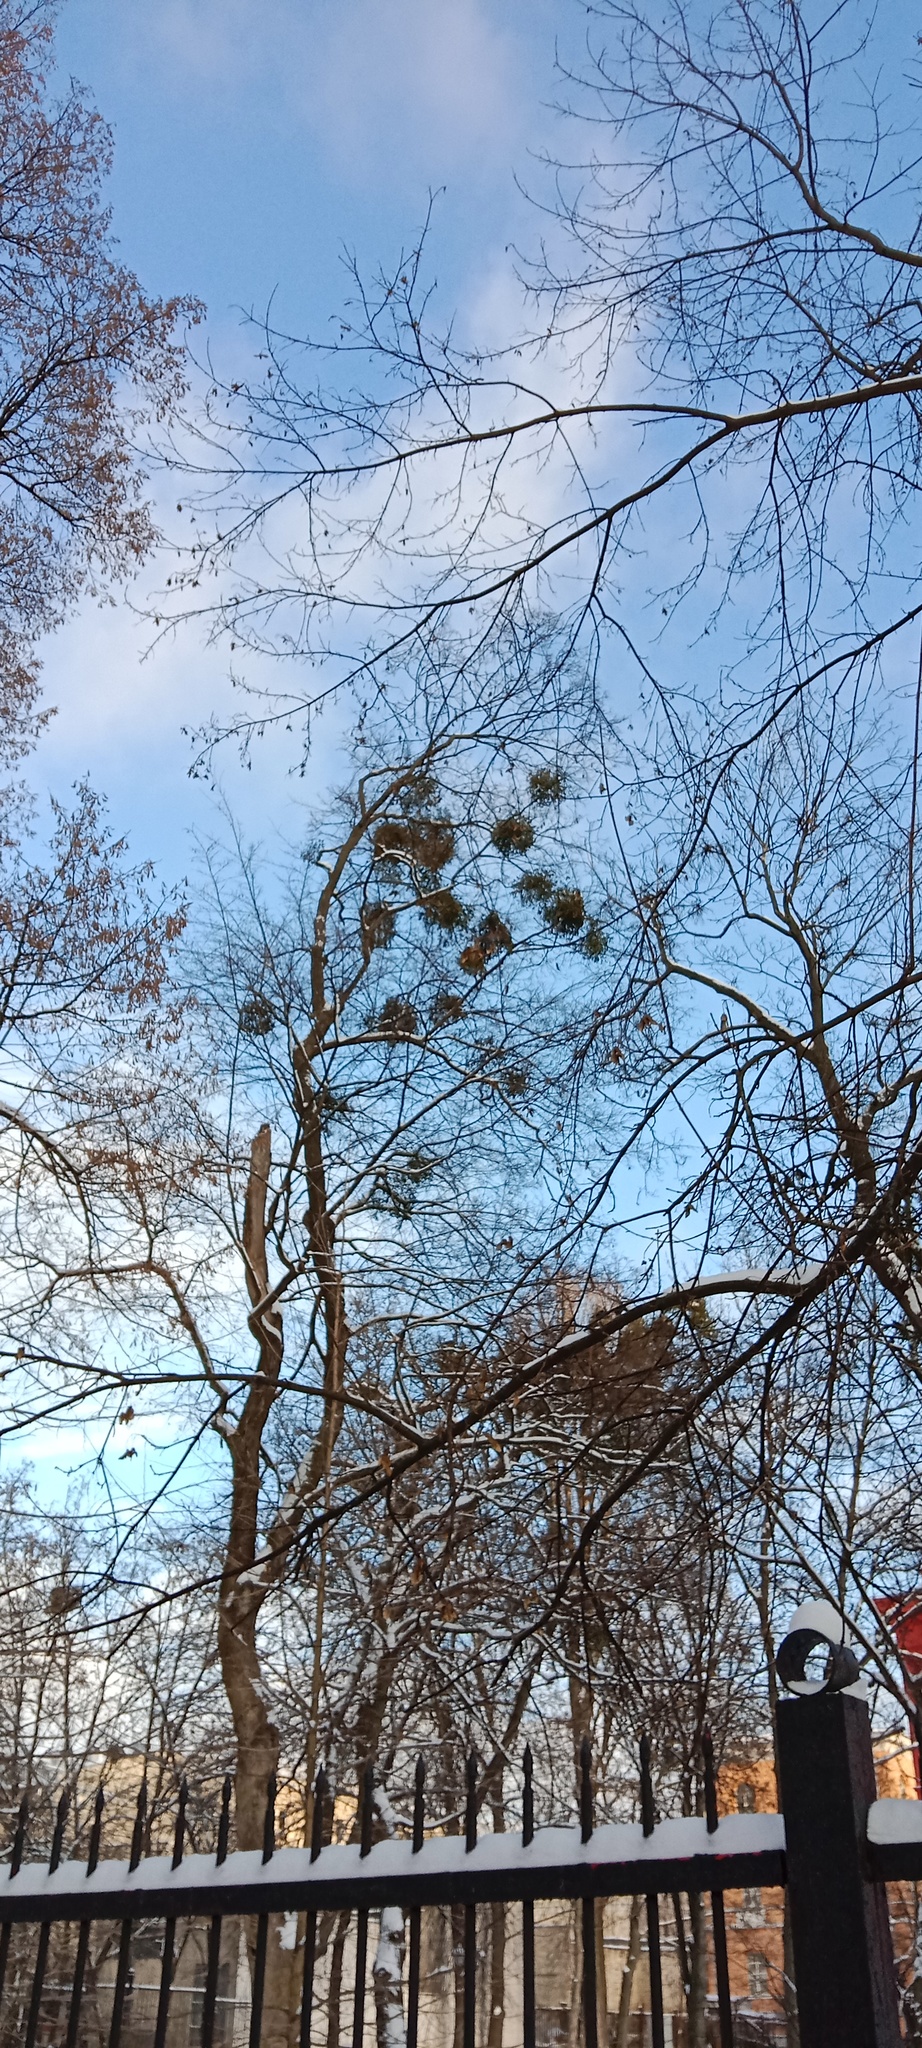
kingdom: Plantae
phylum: Tracheophyta
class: Magnoliopsida
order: Santalales
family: Viscaceae
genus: Viscum
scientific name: Viscum album
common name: Mistletoe
